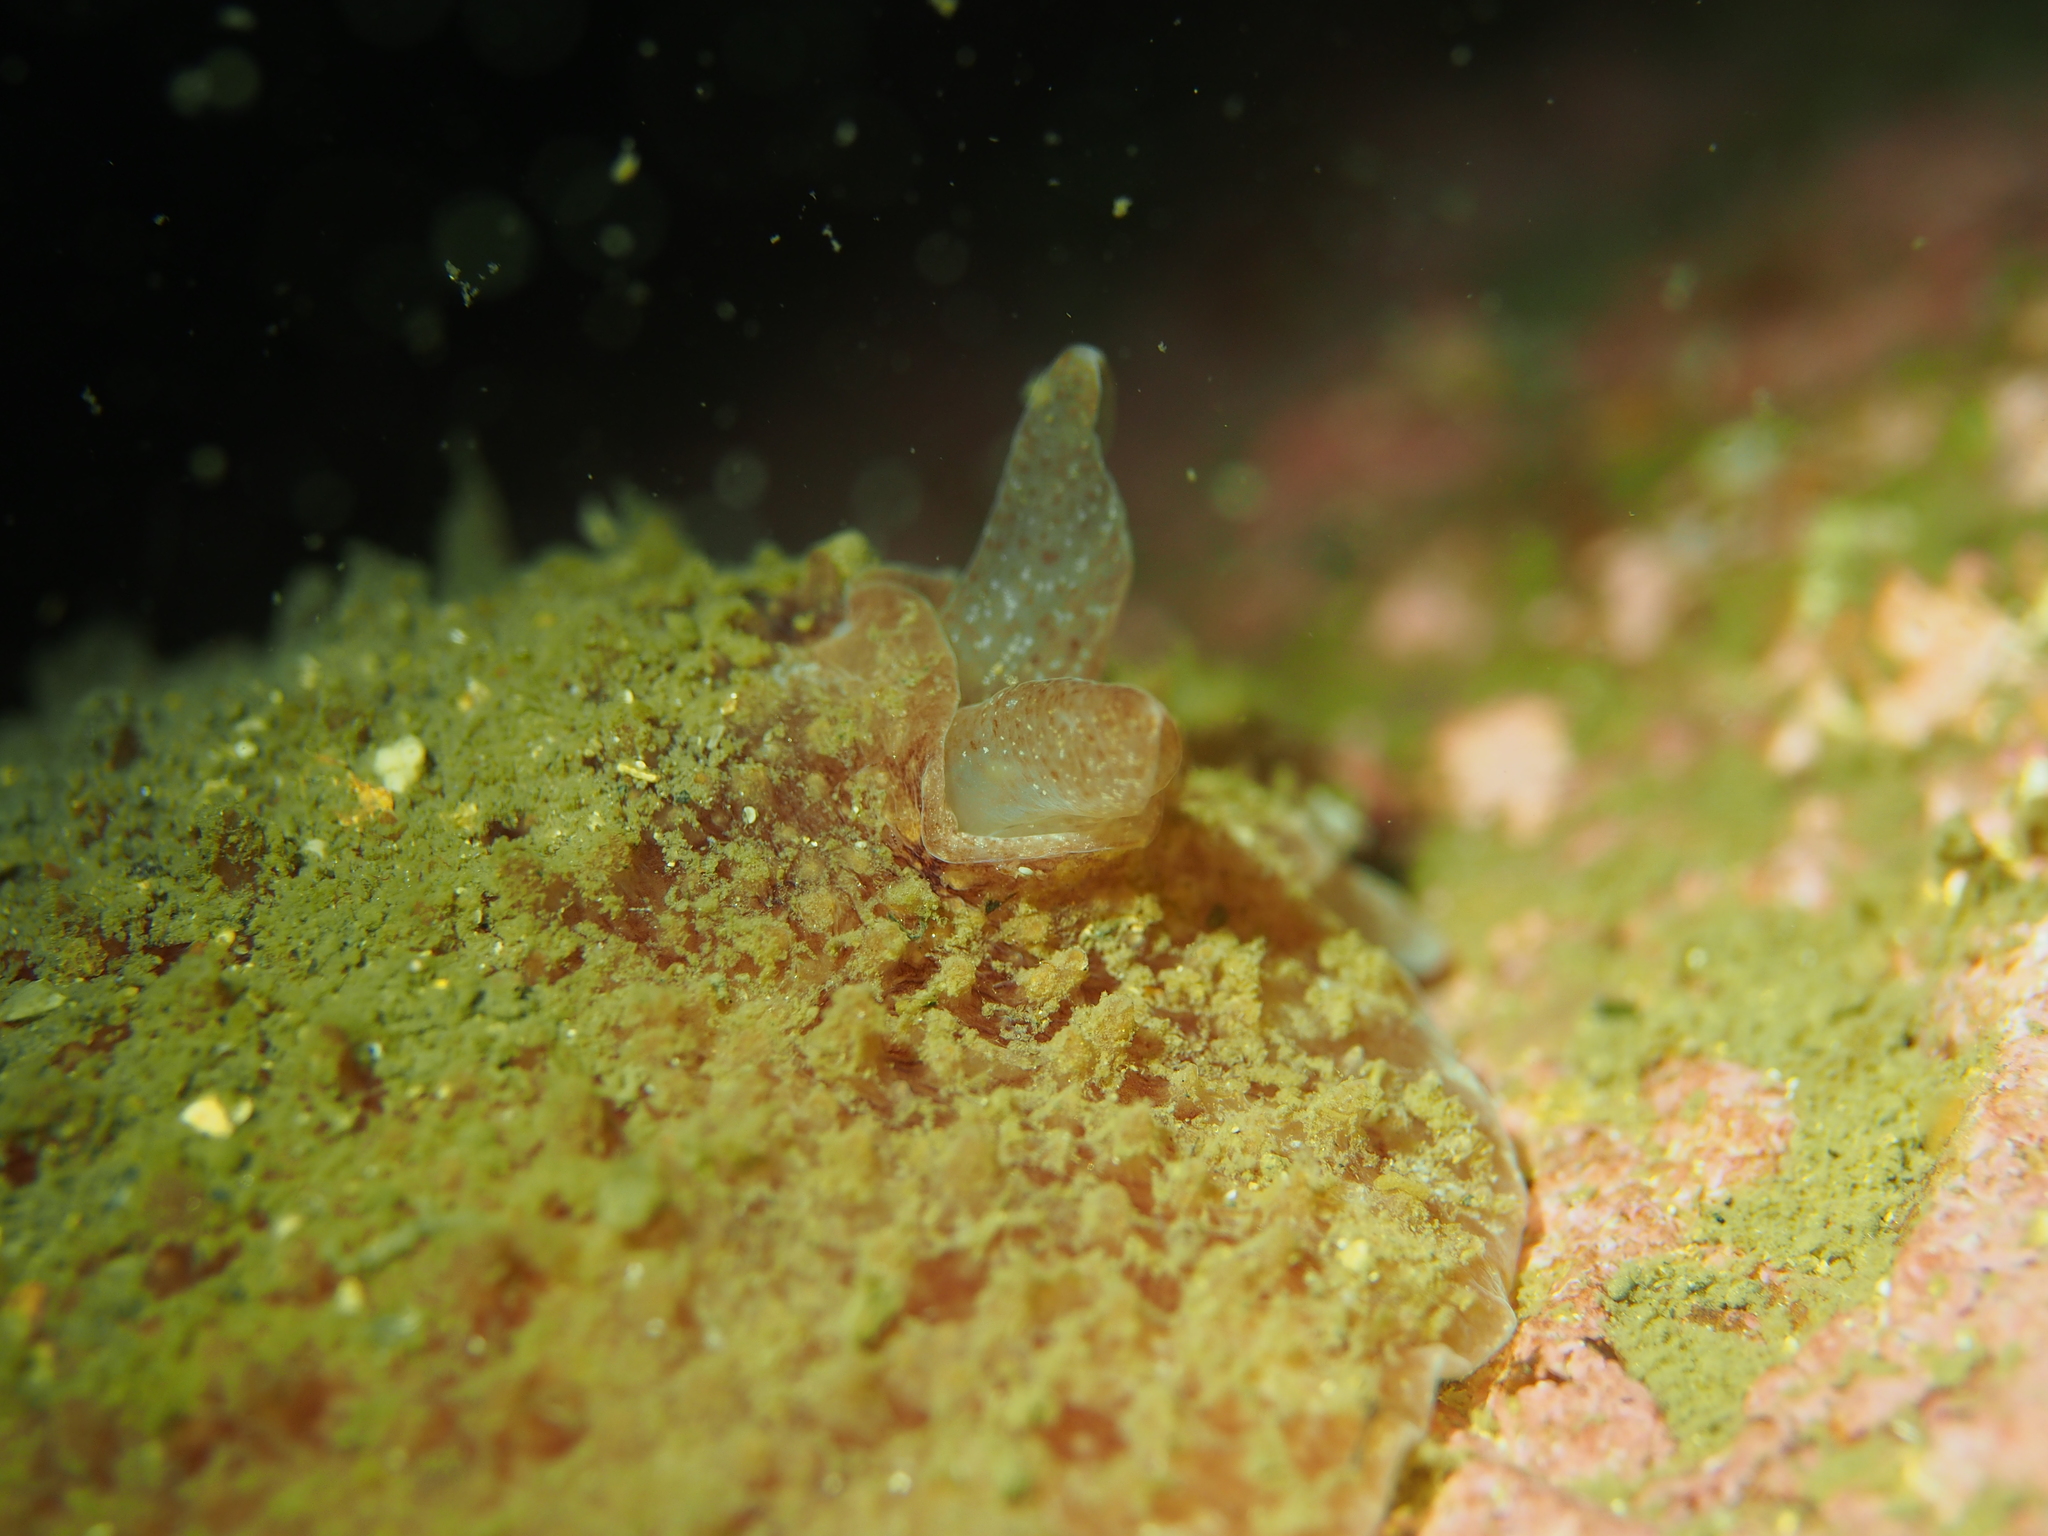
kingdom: Animalia
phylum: Mollusca
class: Gastropoda
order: Pleurobranchida
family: Pleurobranchidae
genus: Pleurobranchus
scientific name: Pleurobranchus membranaceus
